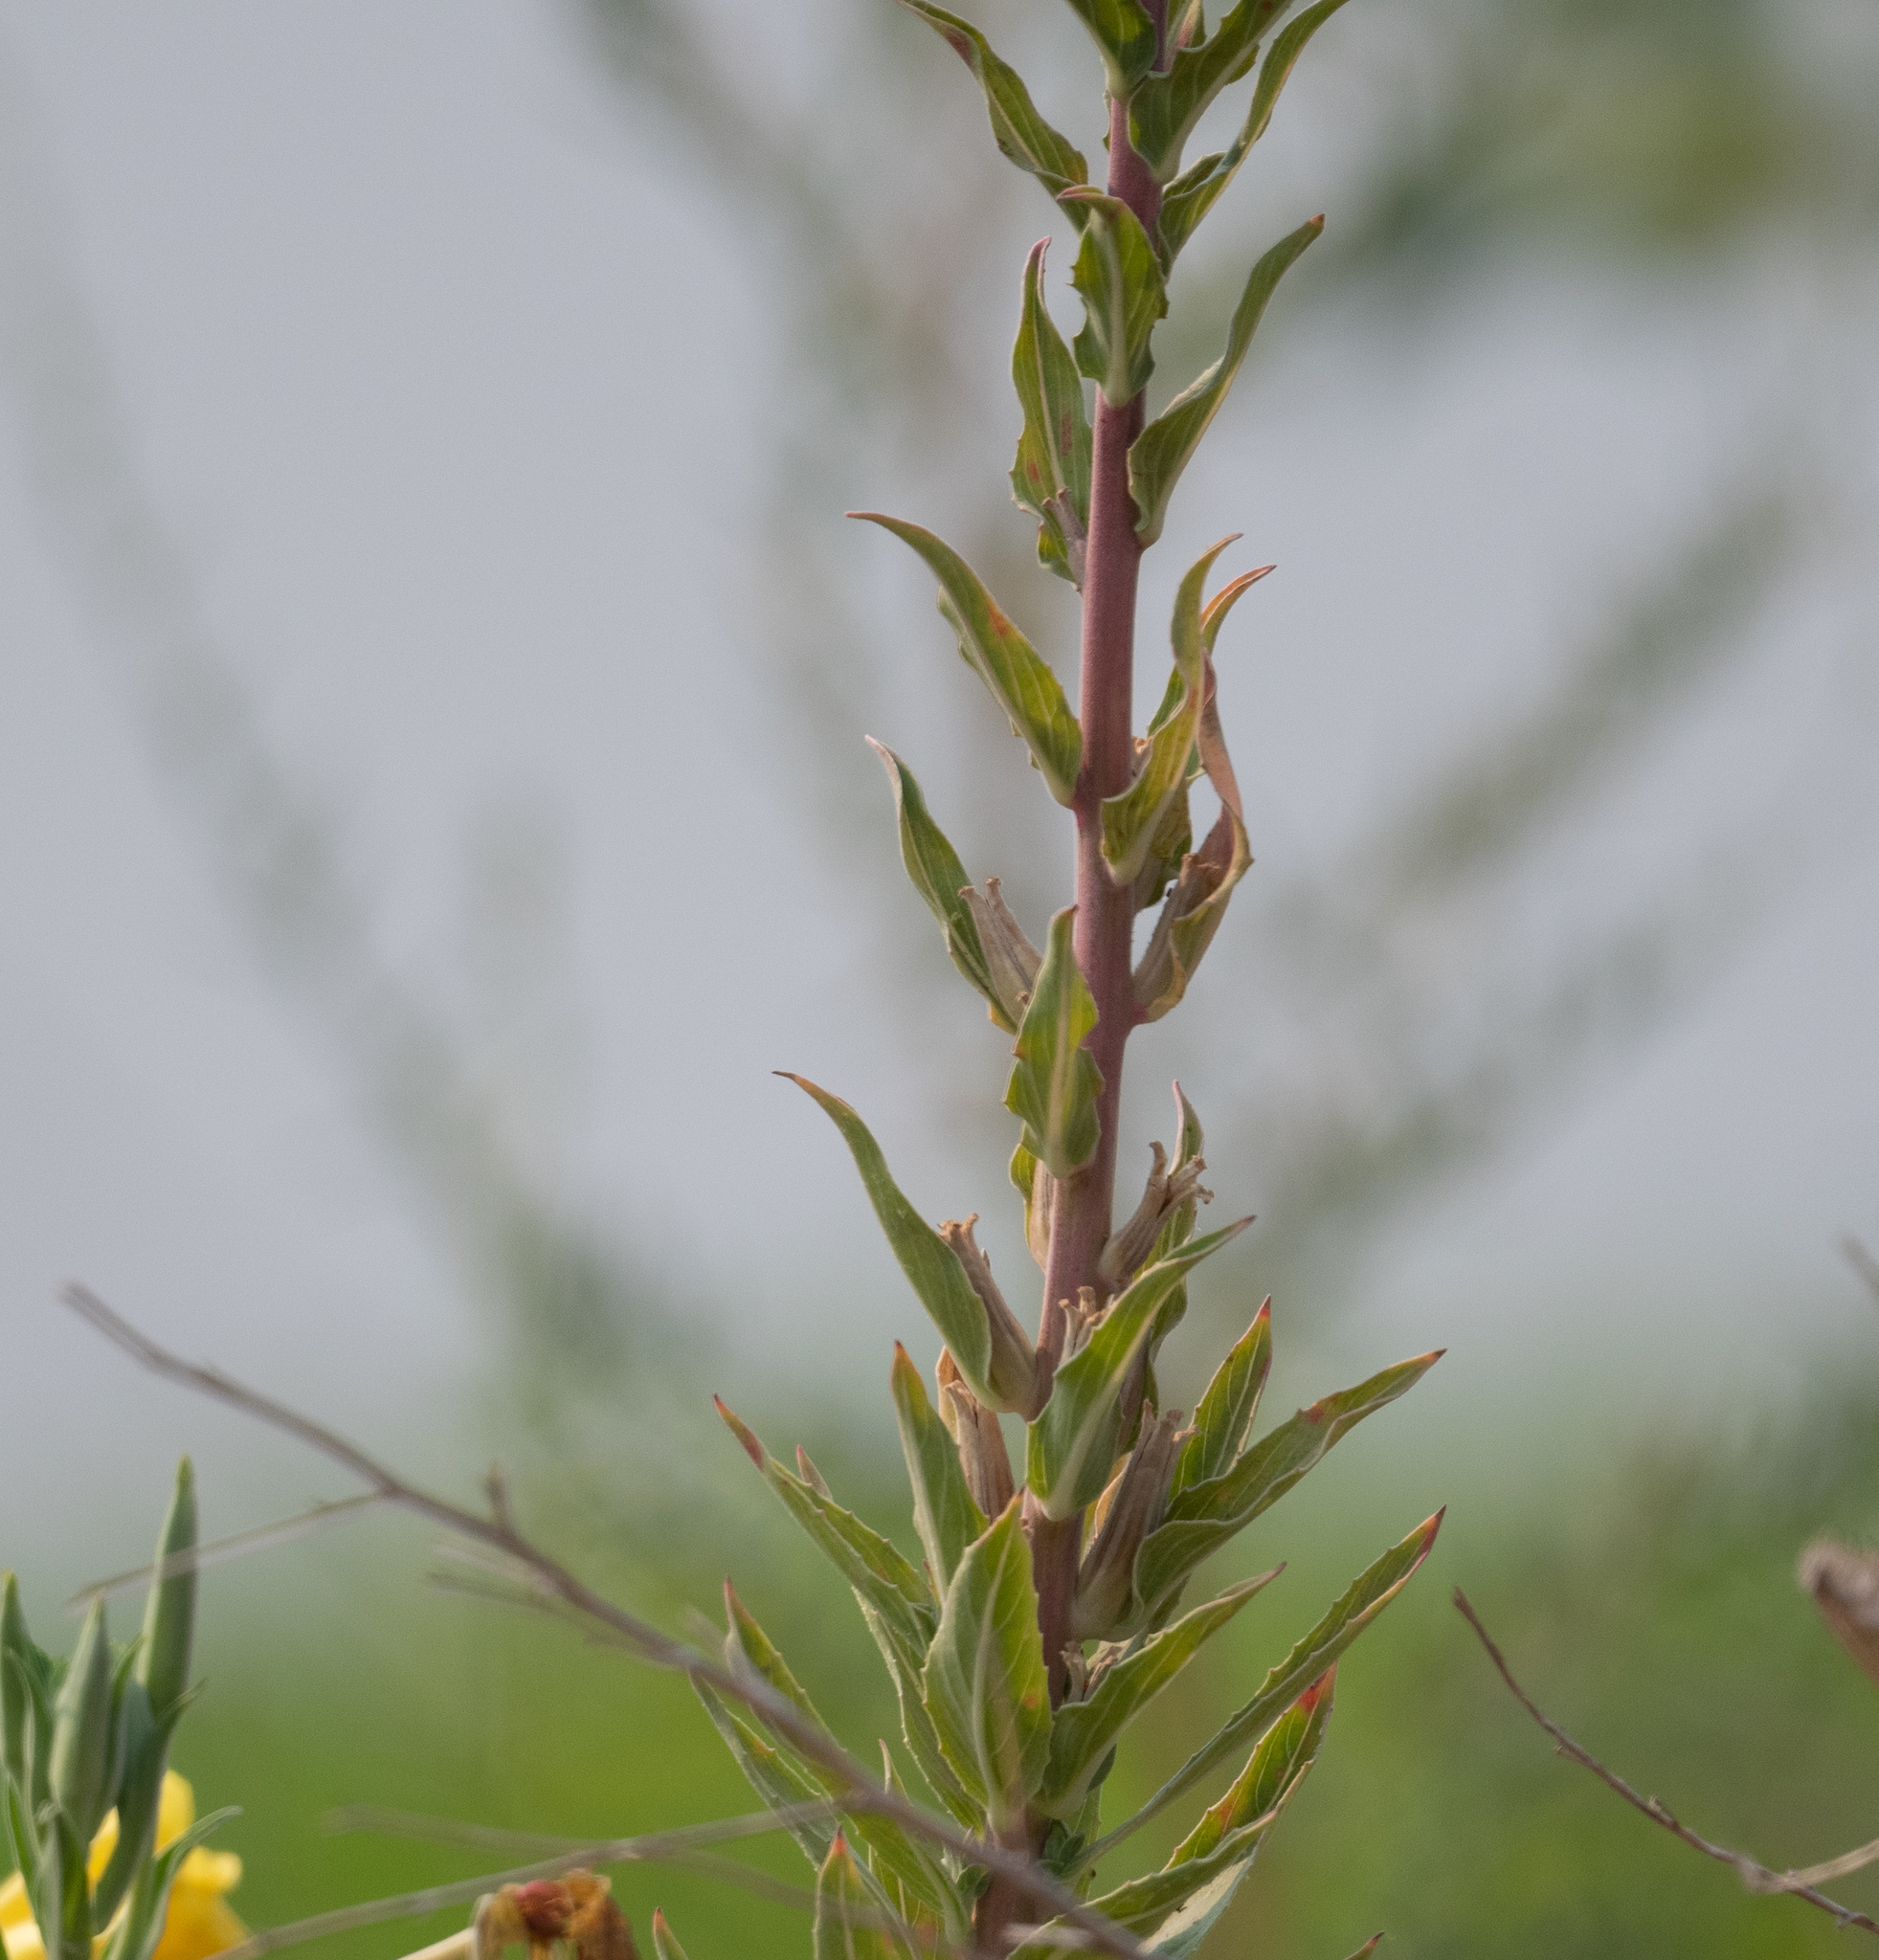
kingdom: Plantae
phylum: Tracheophyta
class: Magnoliopsida
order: Myrtales
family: Onagraceae
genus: Oenothera
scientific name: Oenothera elata
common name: Hooker's evening-primrose
